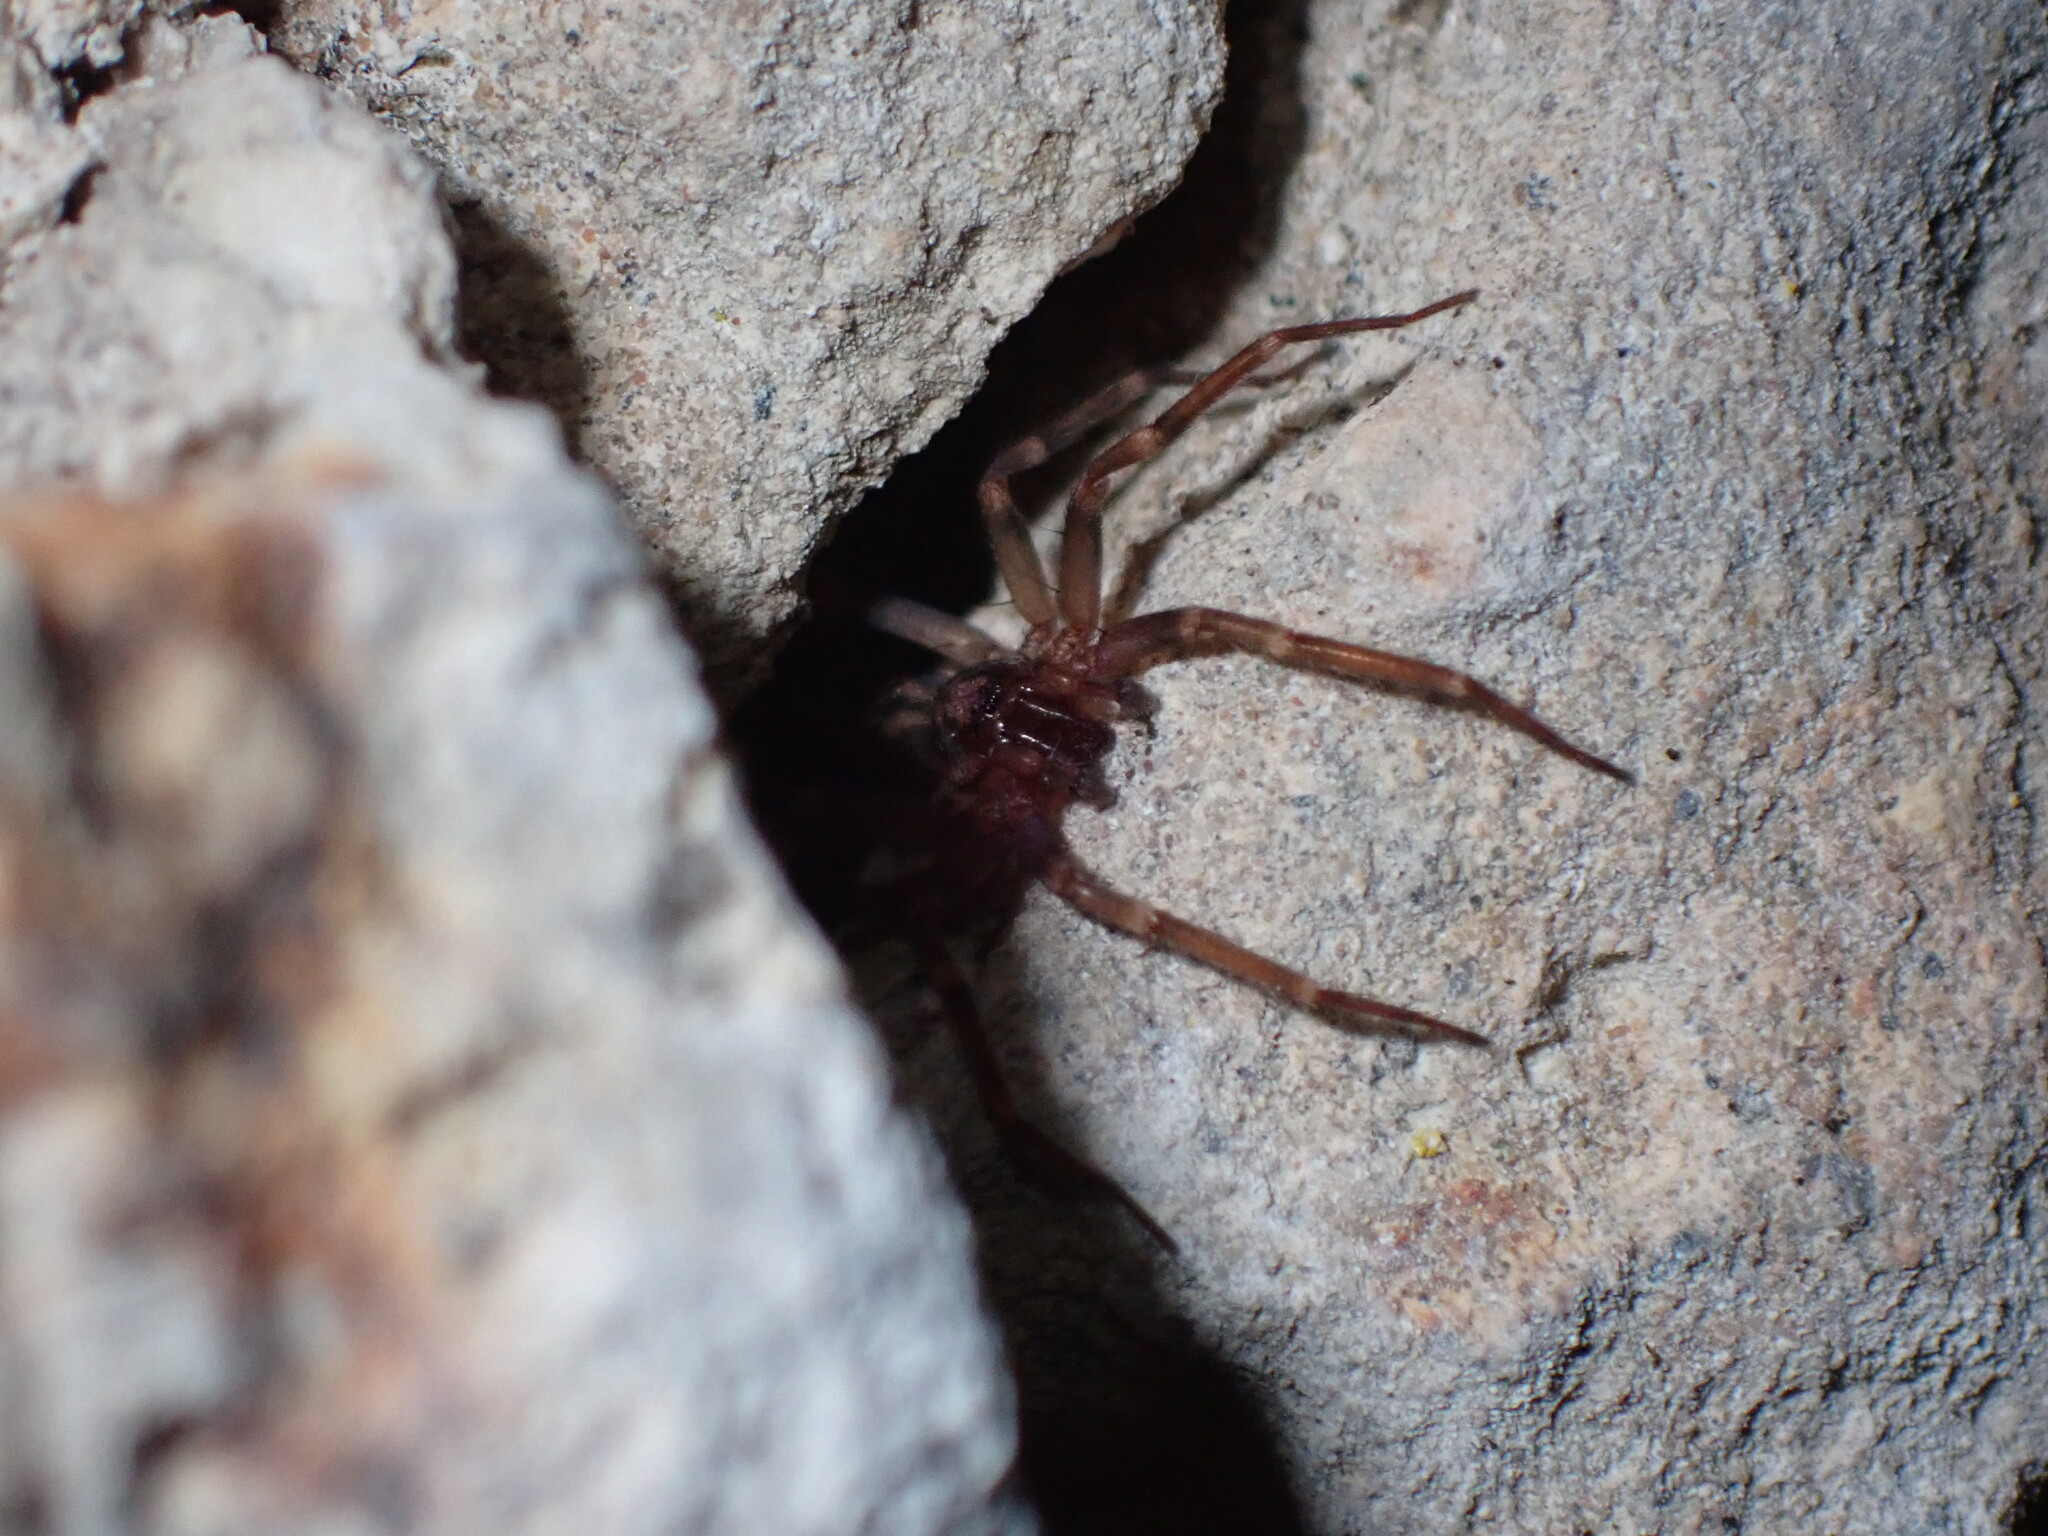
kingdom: Animalia
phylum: Arthropoda
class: Arachnida
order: Araneae
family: Liocranidae
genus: Liocranum
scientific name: Liocranum rupicola
